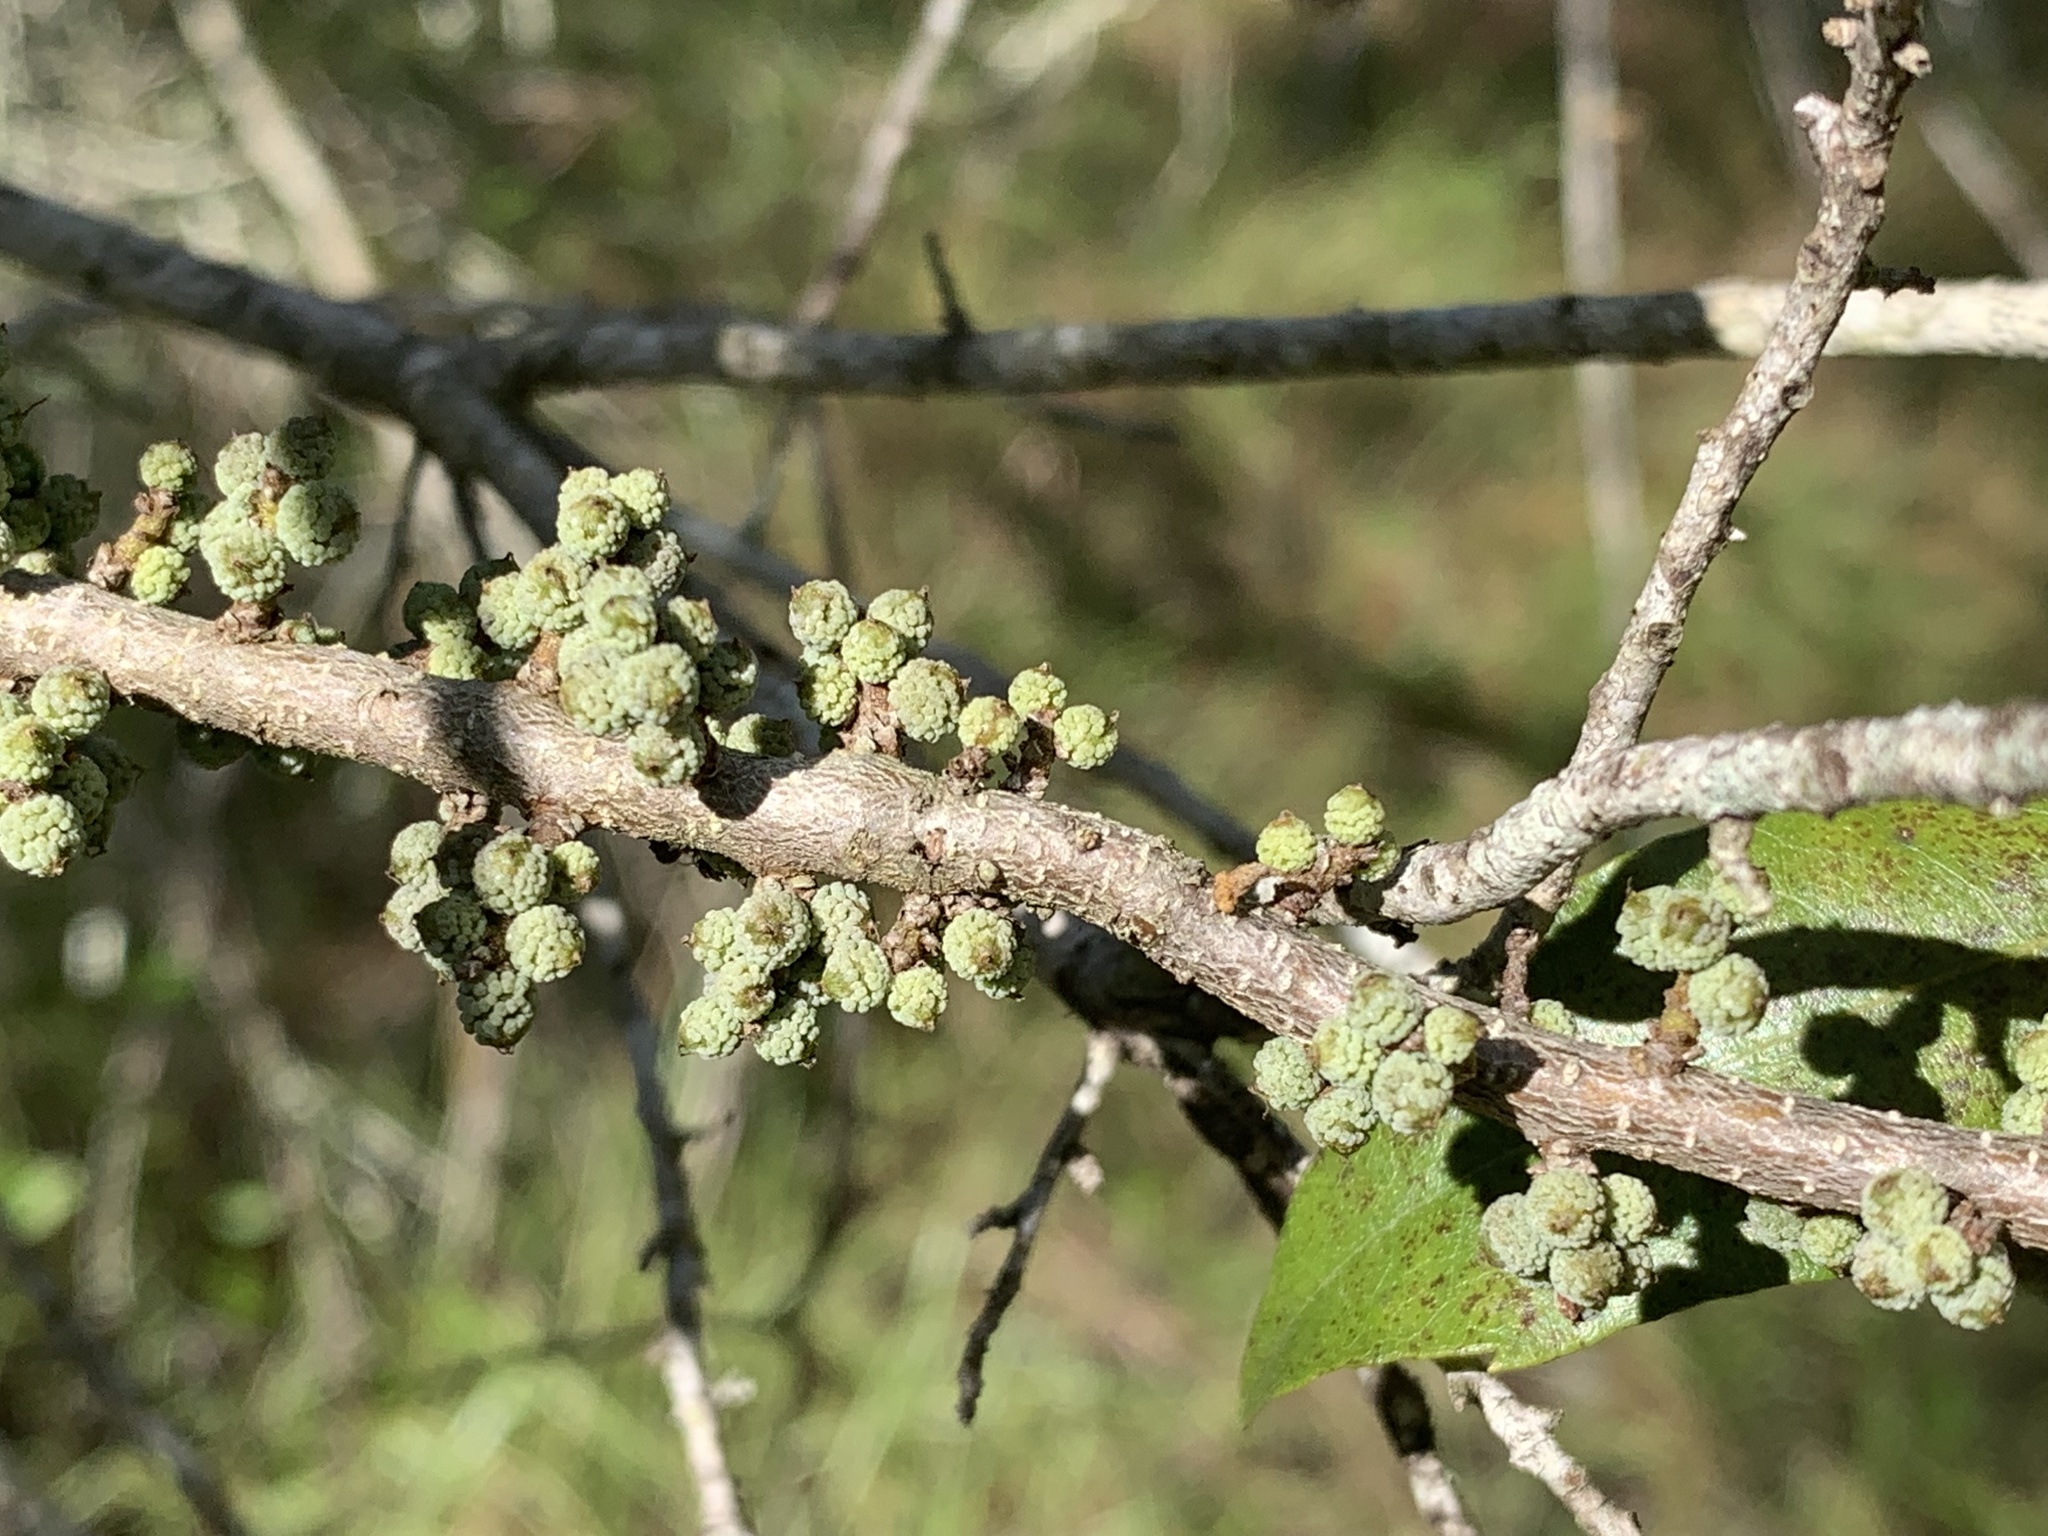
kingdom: Plantae
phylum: Tracheophyta
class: Magnoliopsida
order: Fagales
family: Myricaceae
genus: Morella
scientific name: Morella cerifera
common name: Wax myrtle
